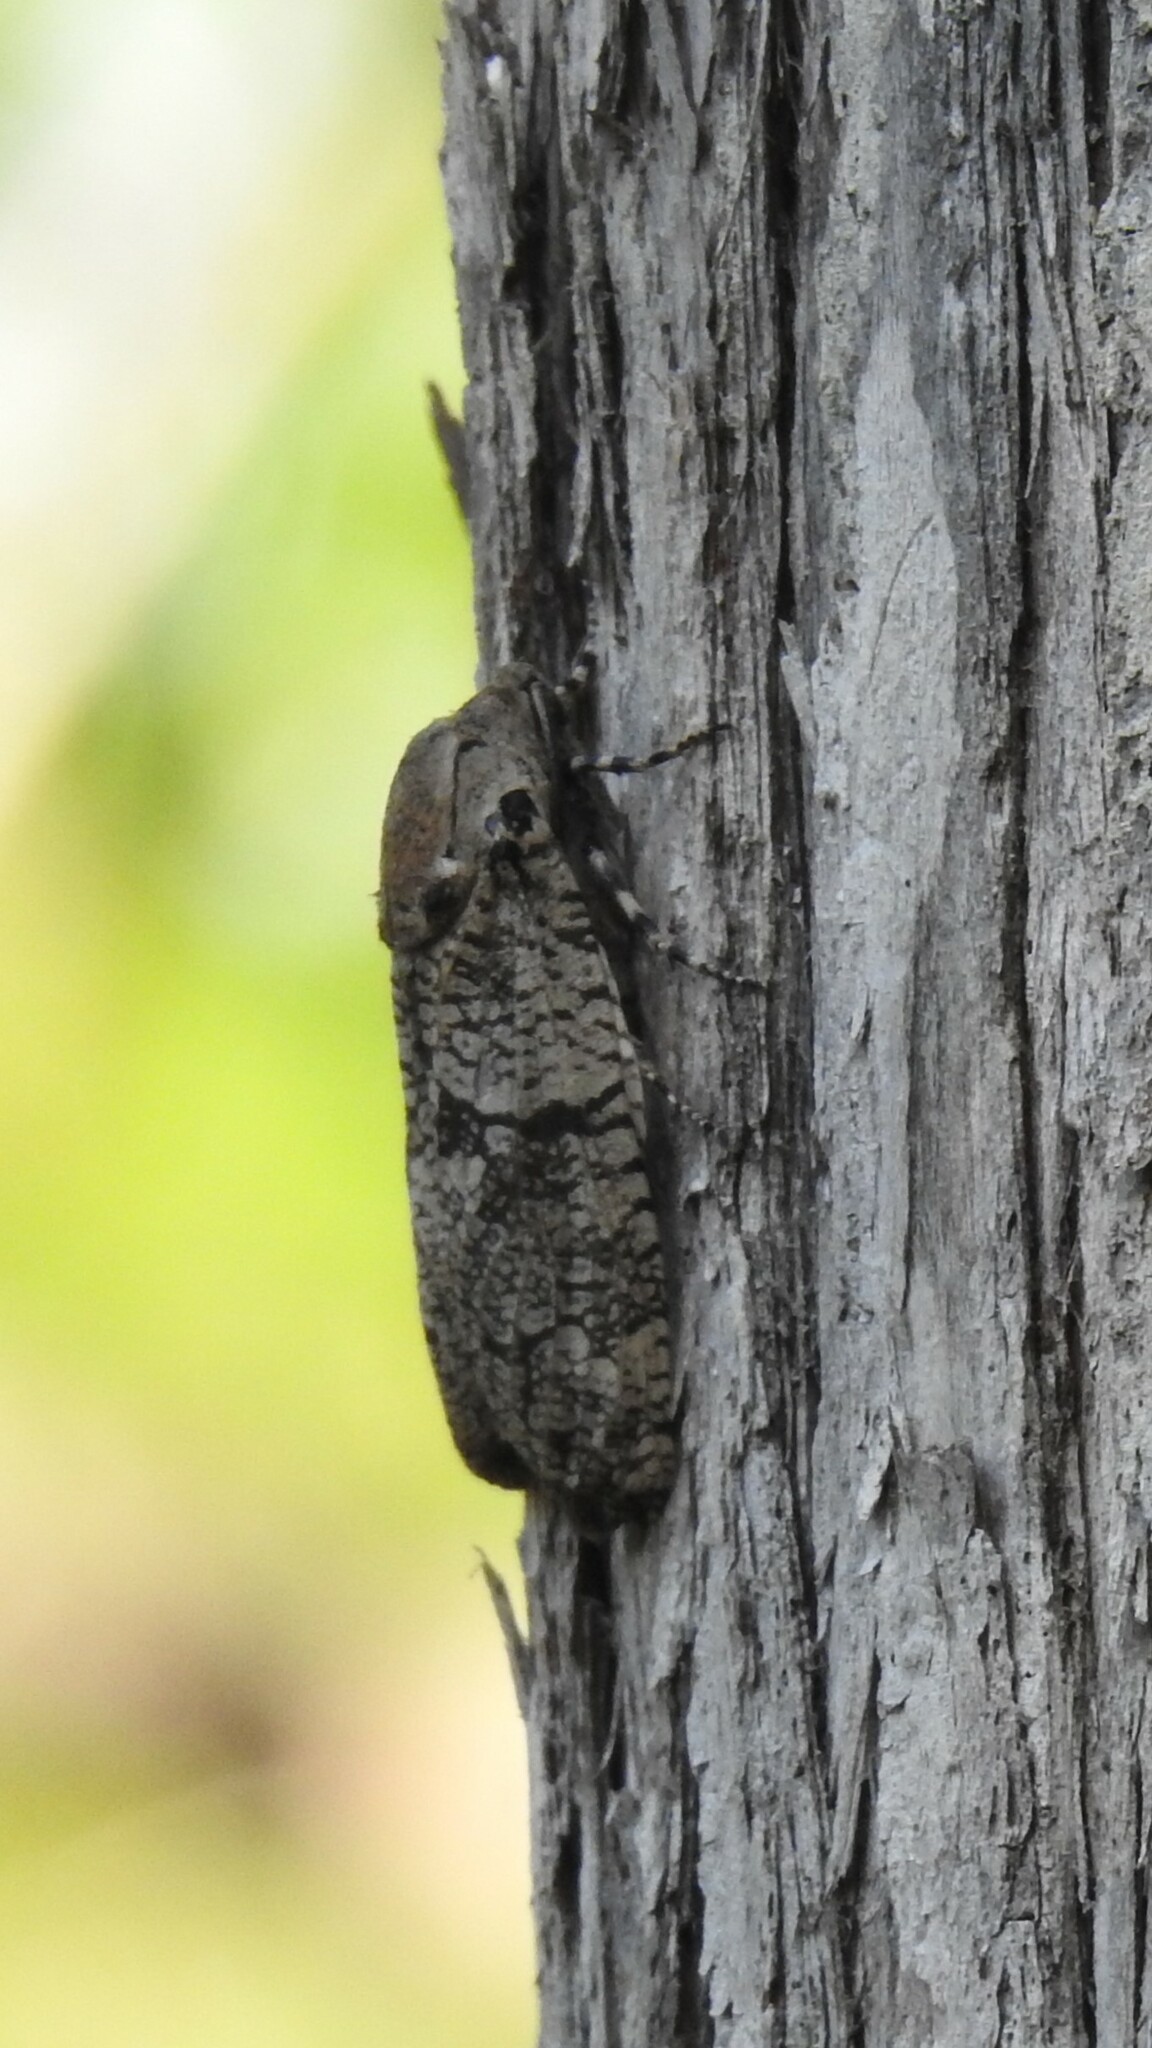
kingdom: Animalia
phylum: Arthropoda
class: Insecta
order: Lepidoptera
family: Cossidae
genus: Prionoxystus
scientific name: Prionoxystus robiniae
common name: Carpenterworm
